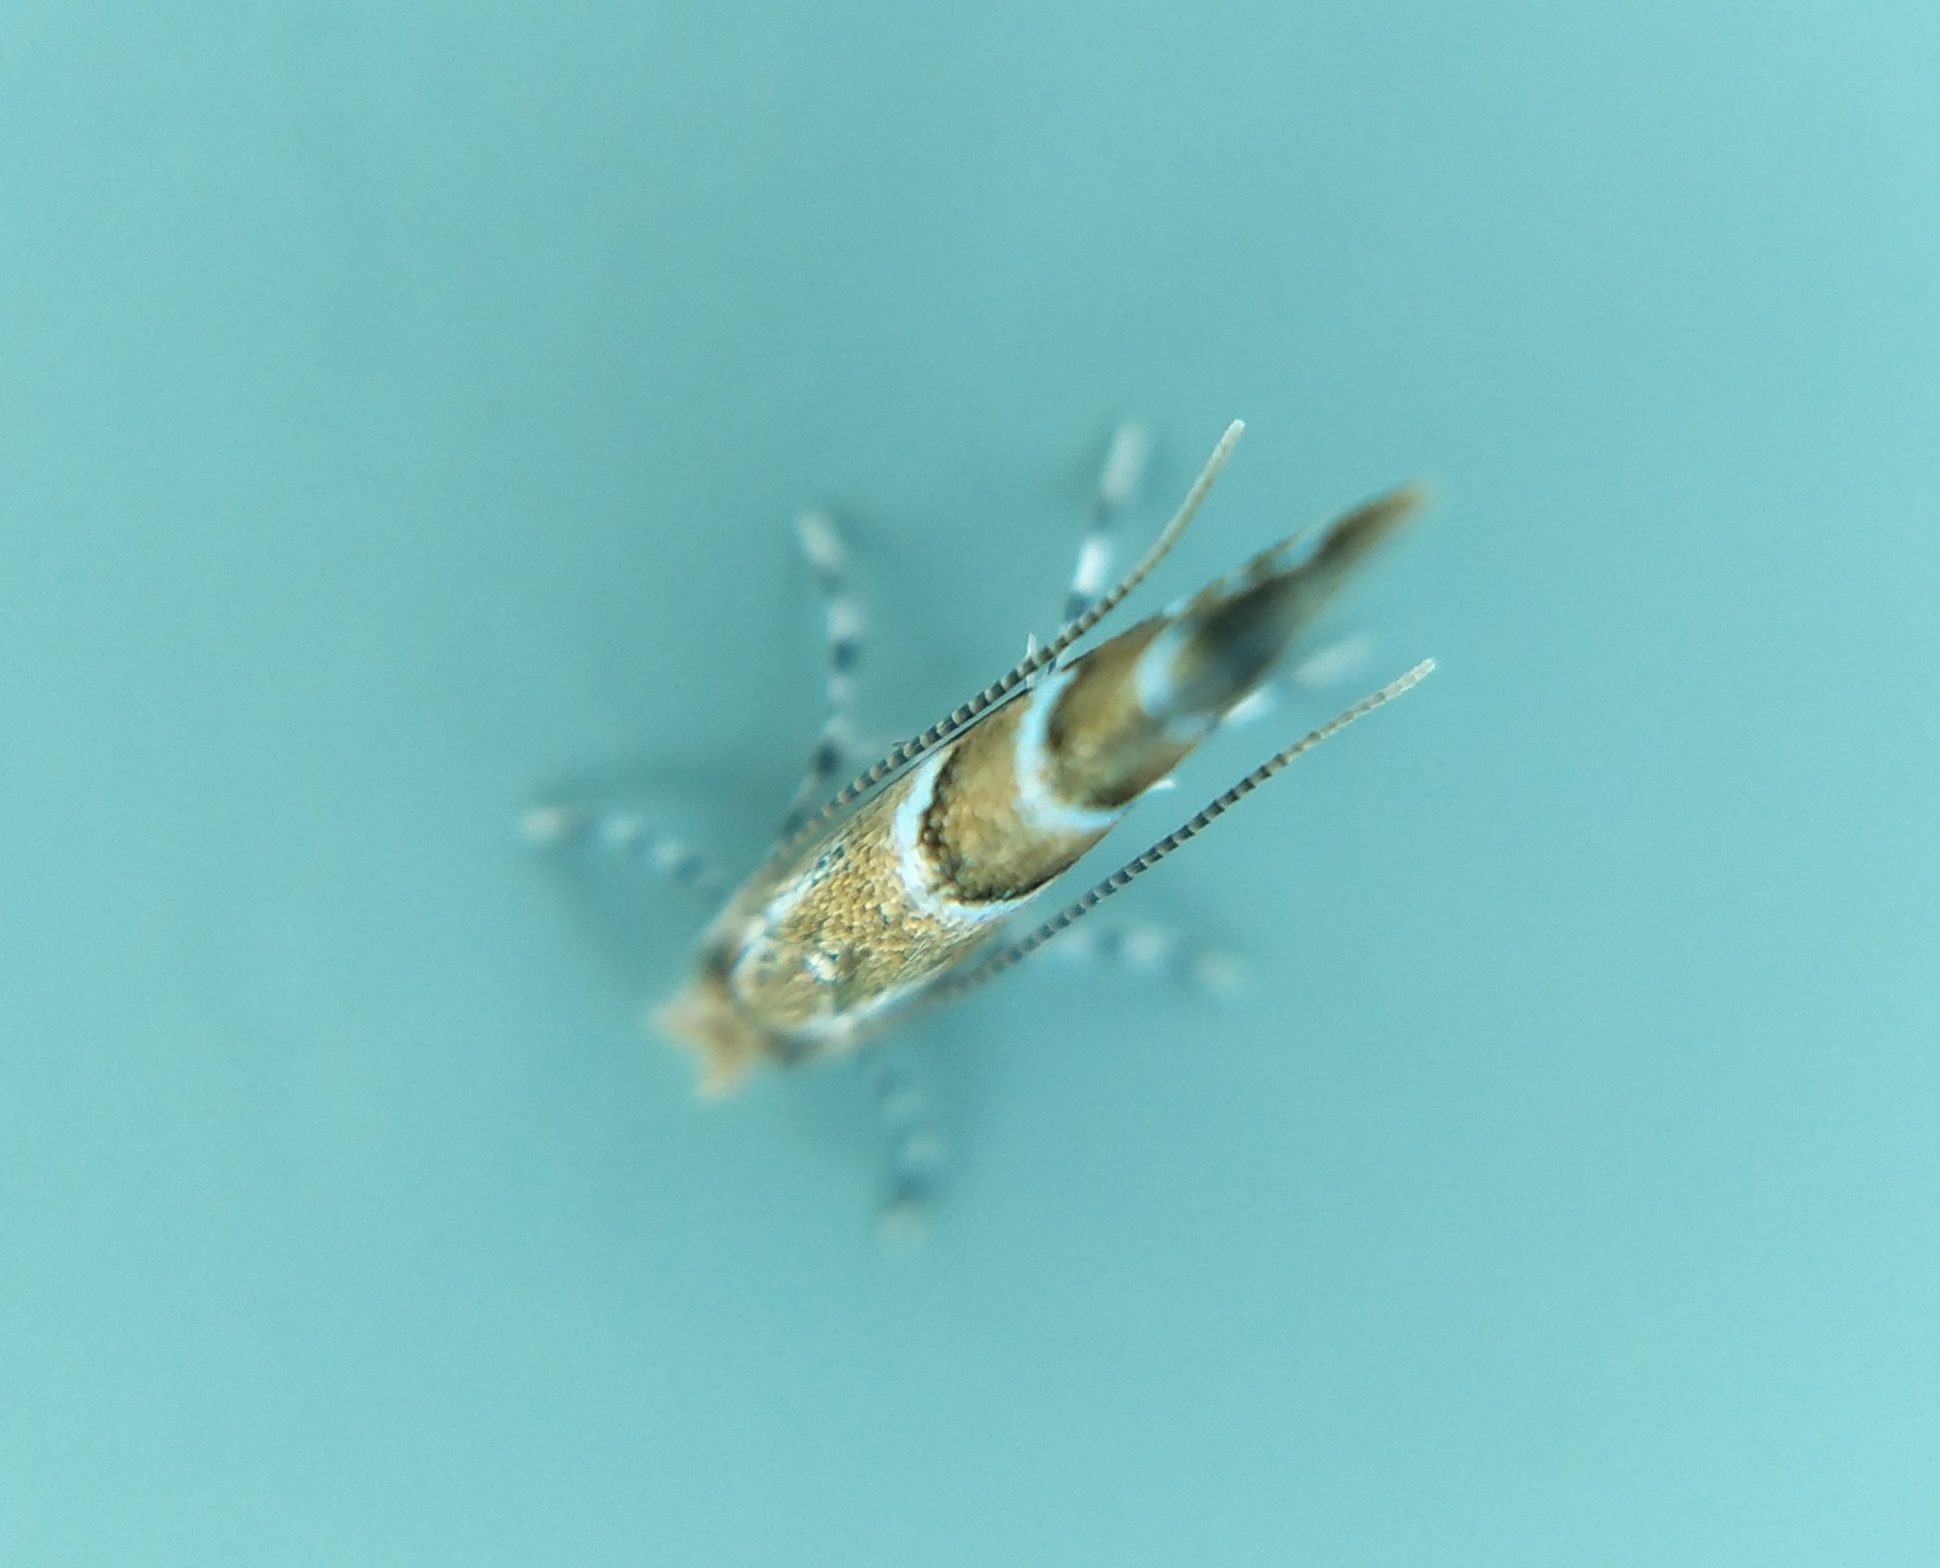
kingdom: Animalia
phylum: Arthropoda
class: Insecta
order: Lepidoptera
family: Gracillariidae
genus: Cameraria
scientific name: Cameraria ohridella
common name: Horse-chestnut leaf-miner
